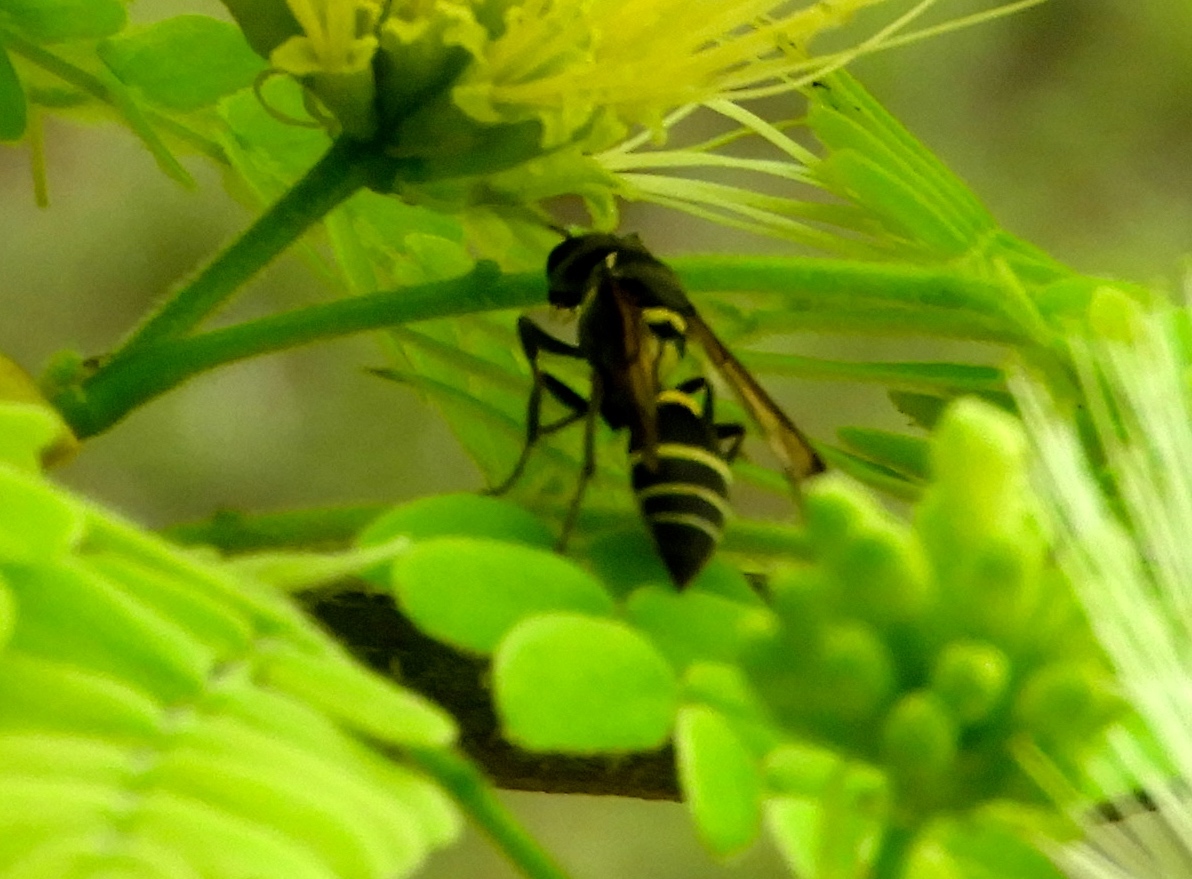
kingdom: Animalia
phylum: Arthropoda
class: Insecta
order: Hymenoptera
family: Vespidae
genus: Myrapetra
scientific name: Myrapetra
